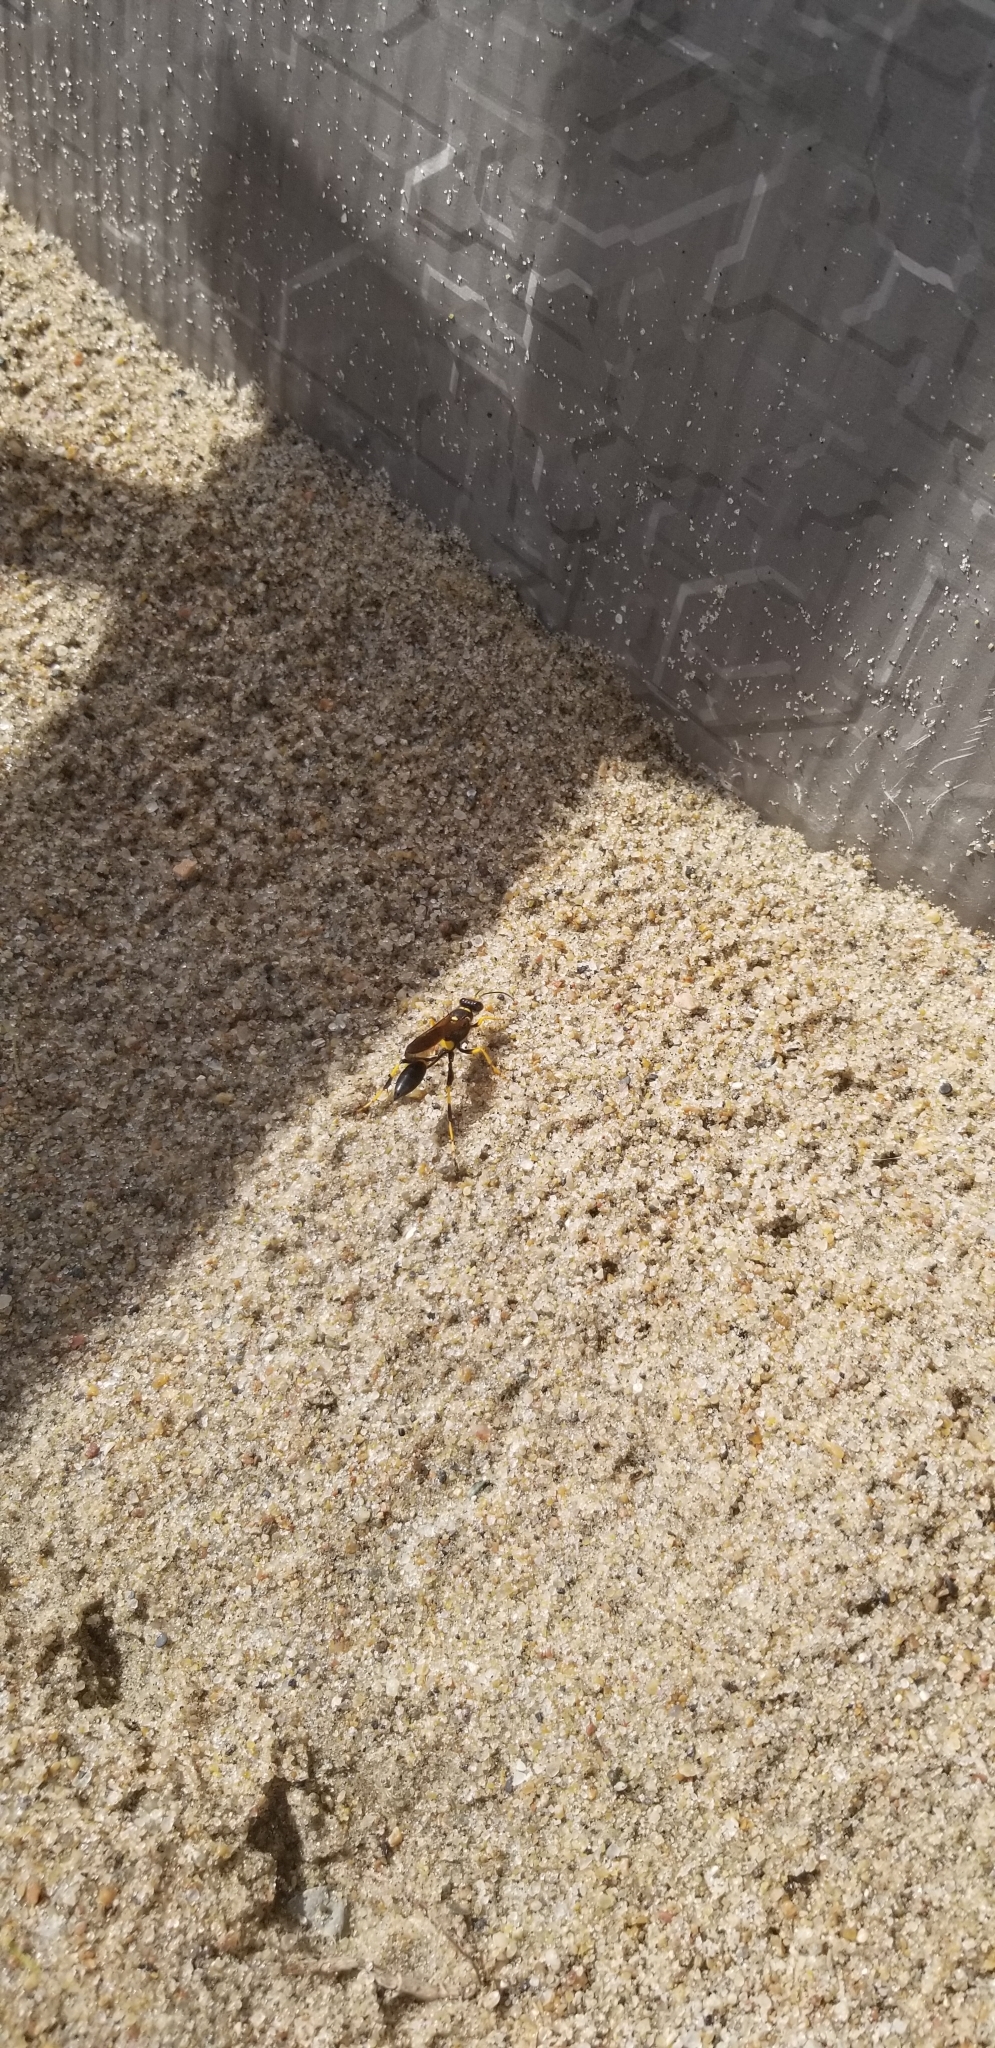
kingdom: Animalia
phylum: Arthropoda
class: Insecta
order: Hymenoptera
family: Sphecidae
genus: Sceliphron
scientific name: Sceliphron caementarium
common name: Mud dauber
